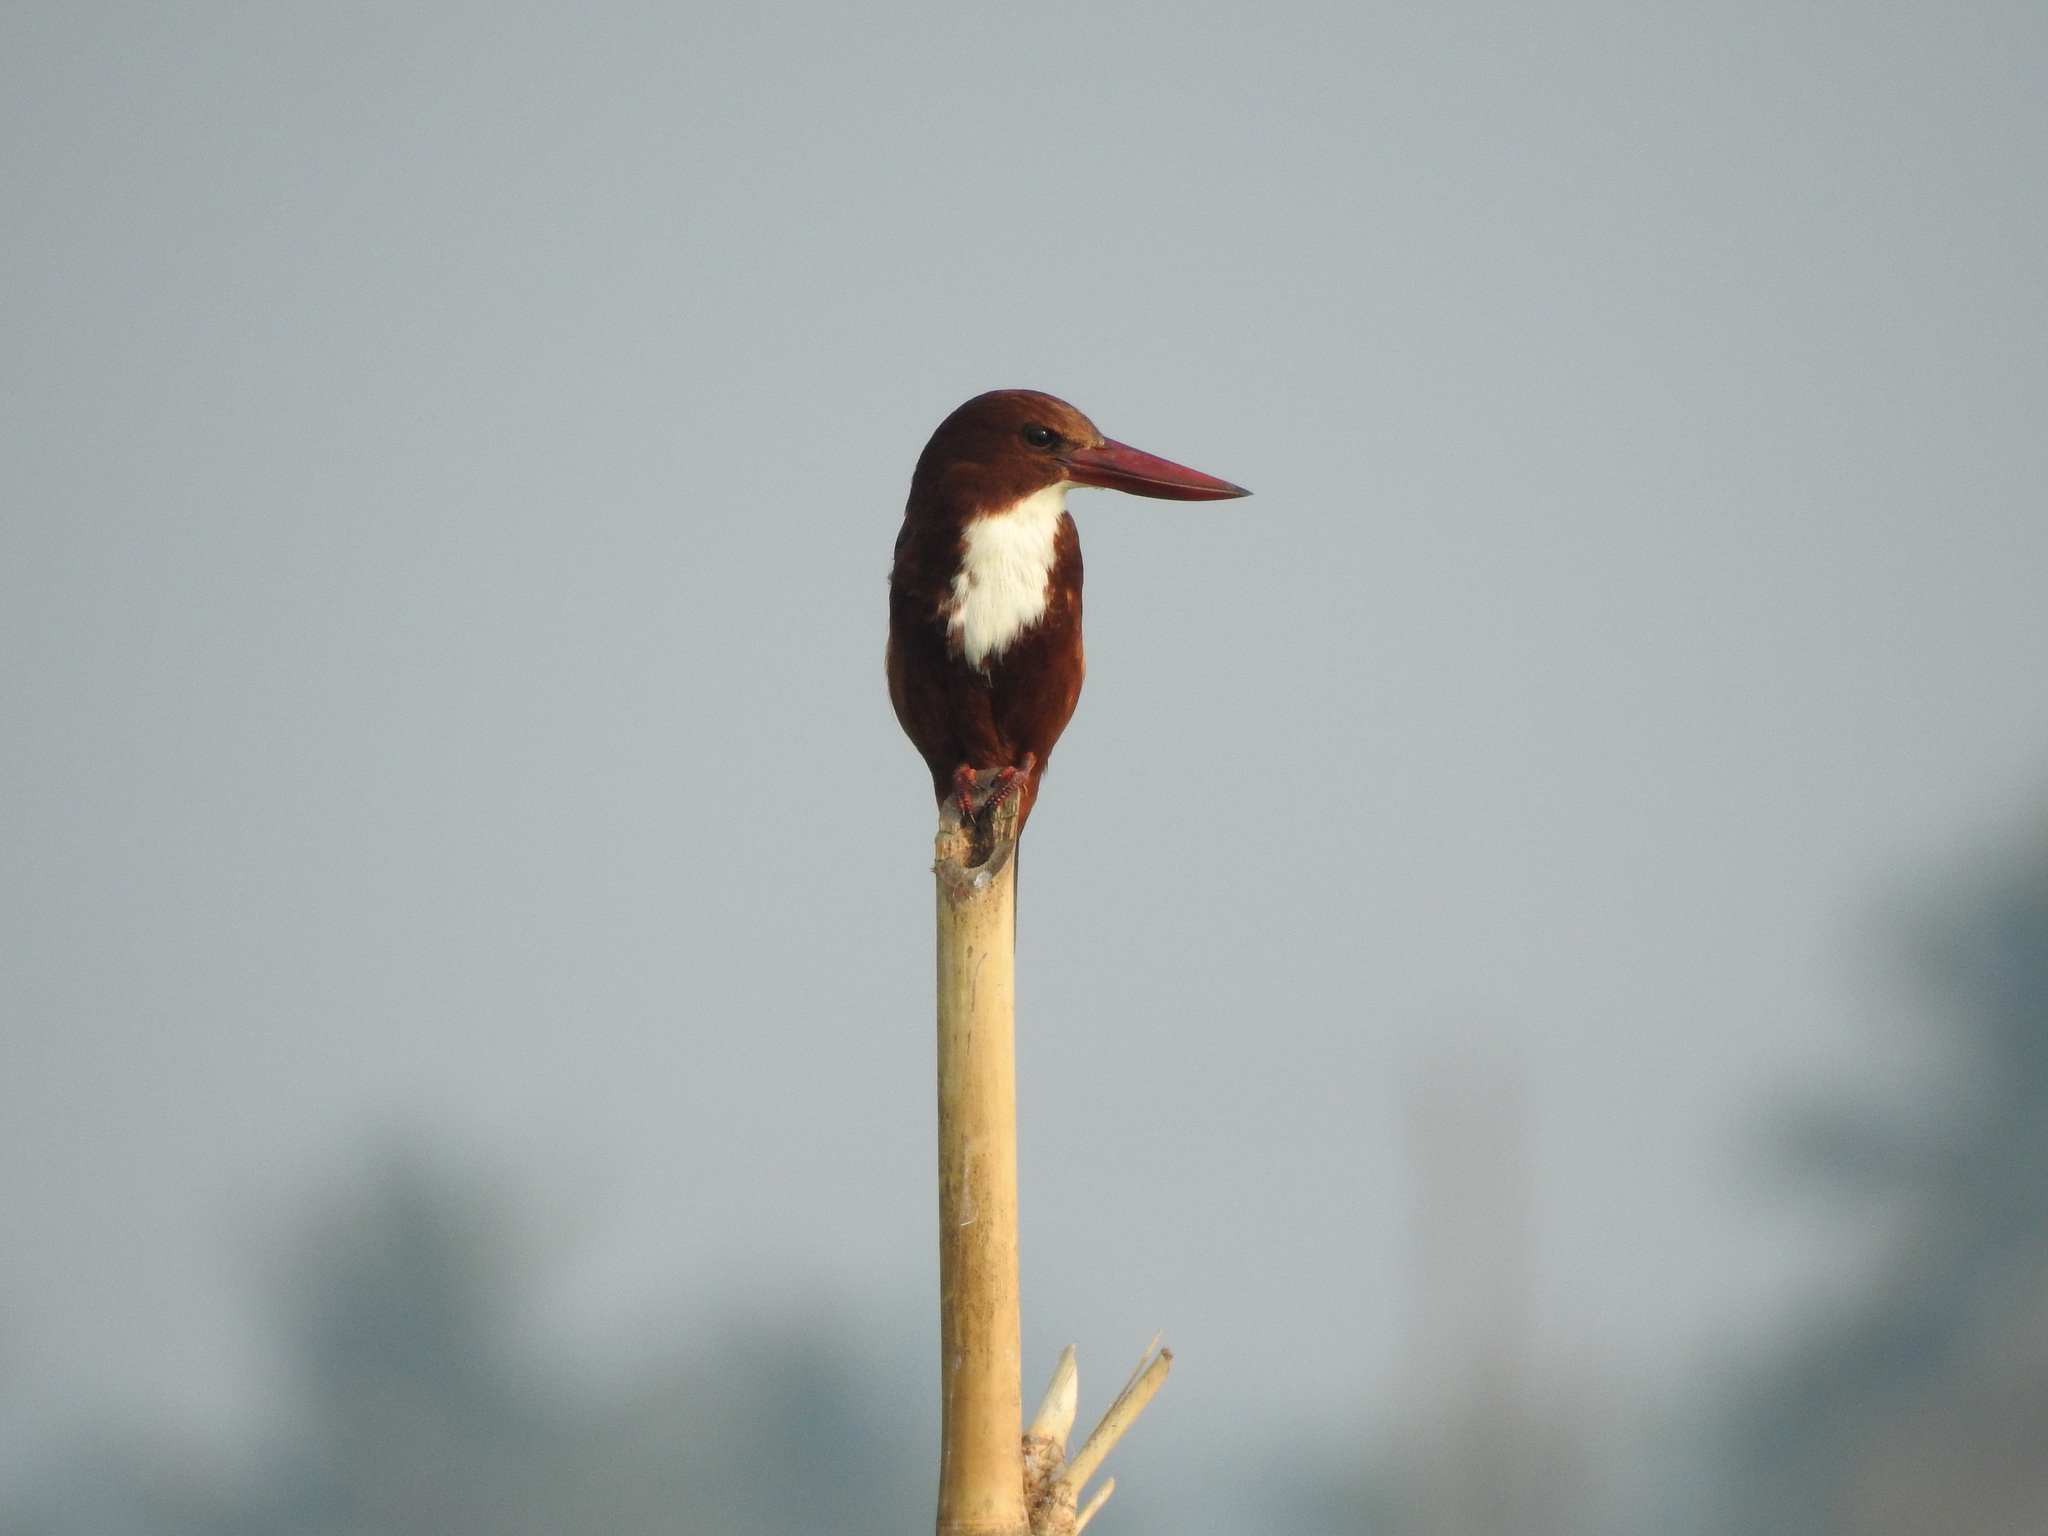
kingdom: Animalia
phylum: Chordata
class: Aves
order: Coraciiformes
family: Alcedinidae
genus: Halcyon
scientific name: Halcyon smyrnensis
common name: White-throated kingfisher
